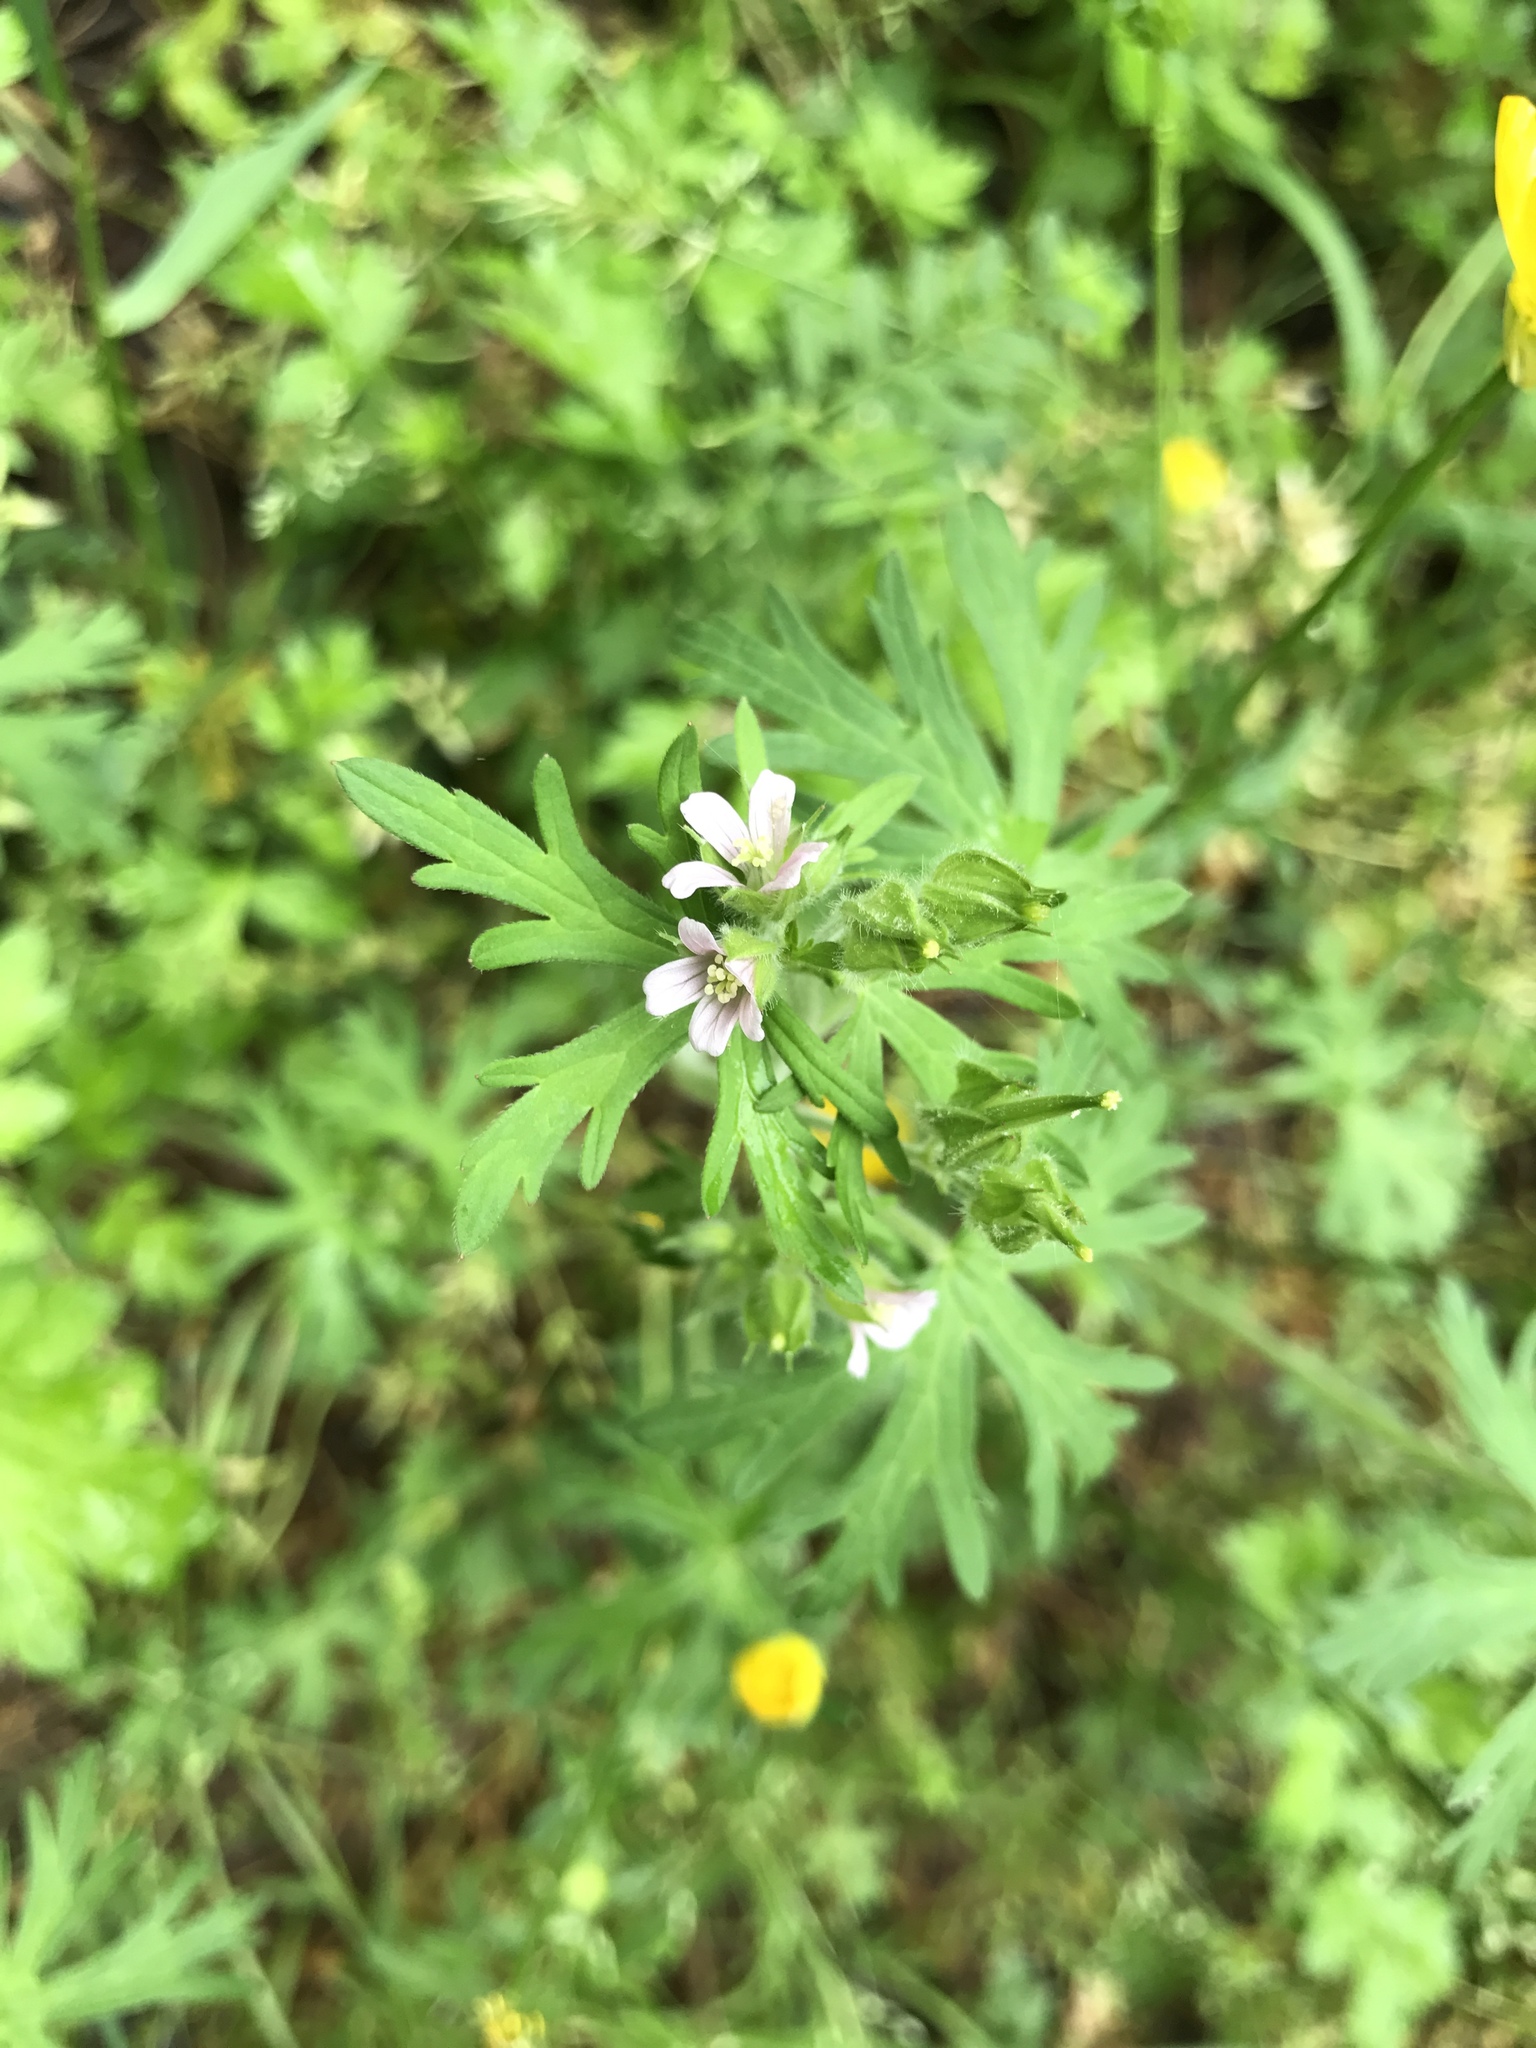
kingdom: Plantae
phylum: Tracheophyta
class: Magnoliopsida
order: Geraniales
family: Geraniaceae
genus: Geranium
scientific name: Geranium carolinianum
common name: Carolina crane's-bill
